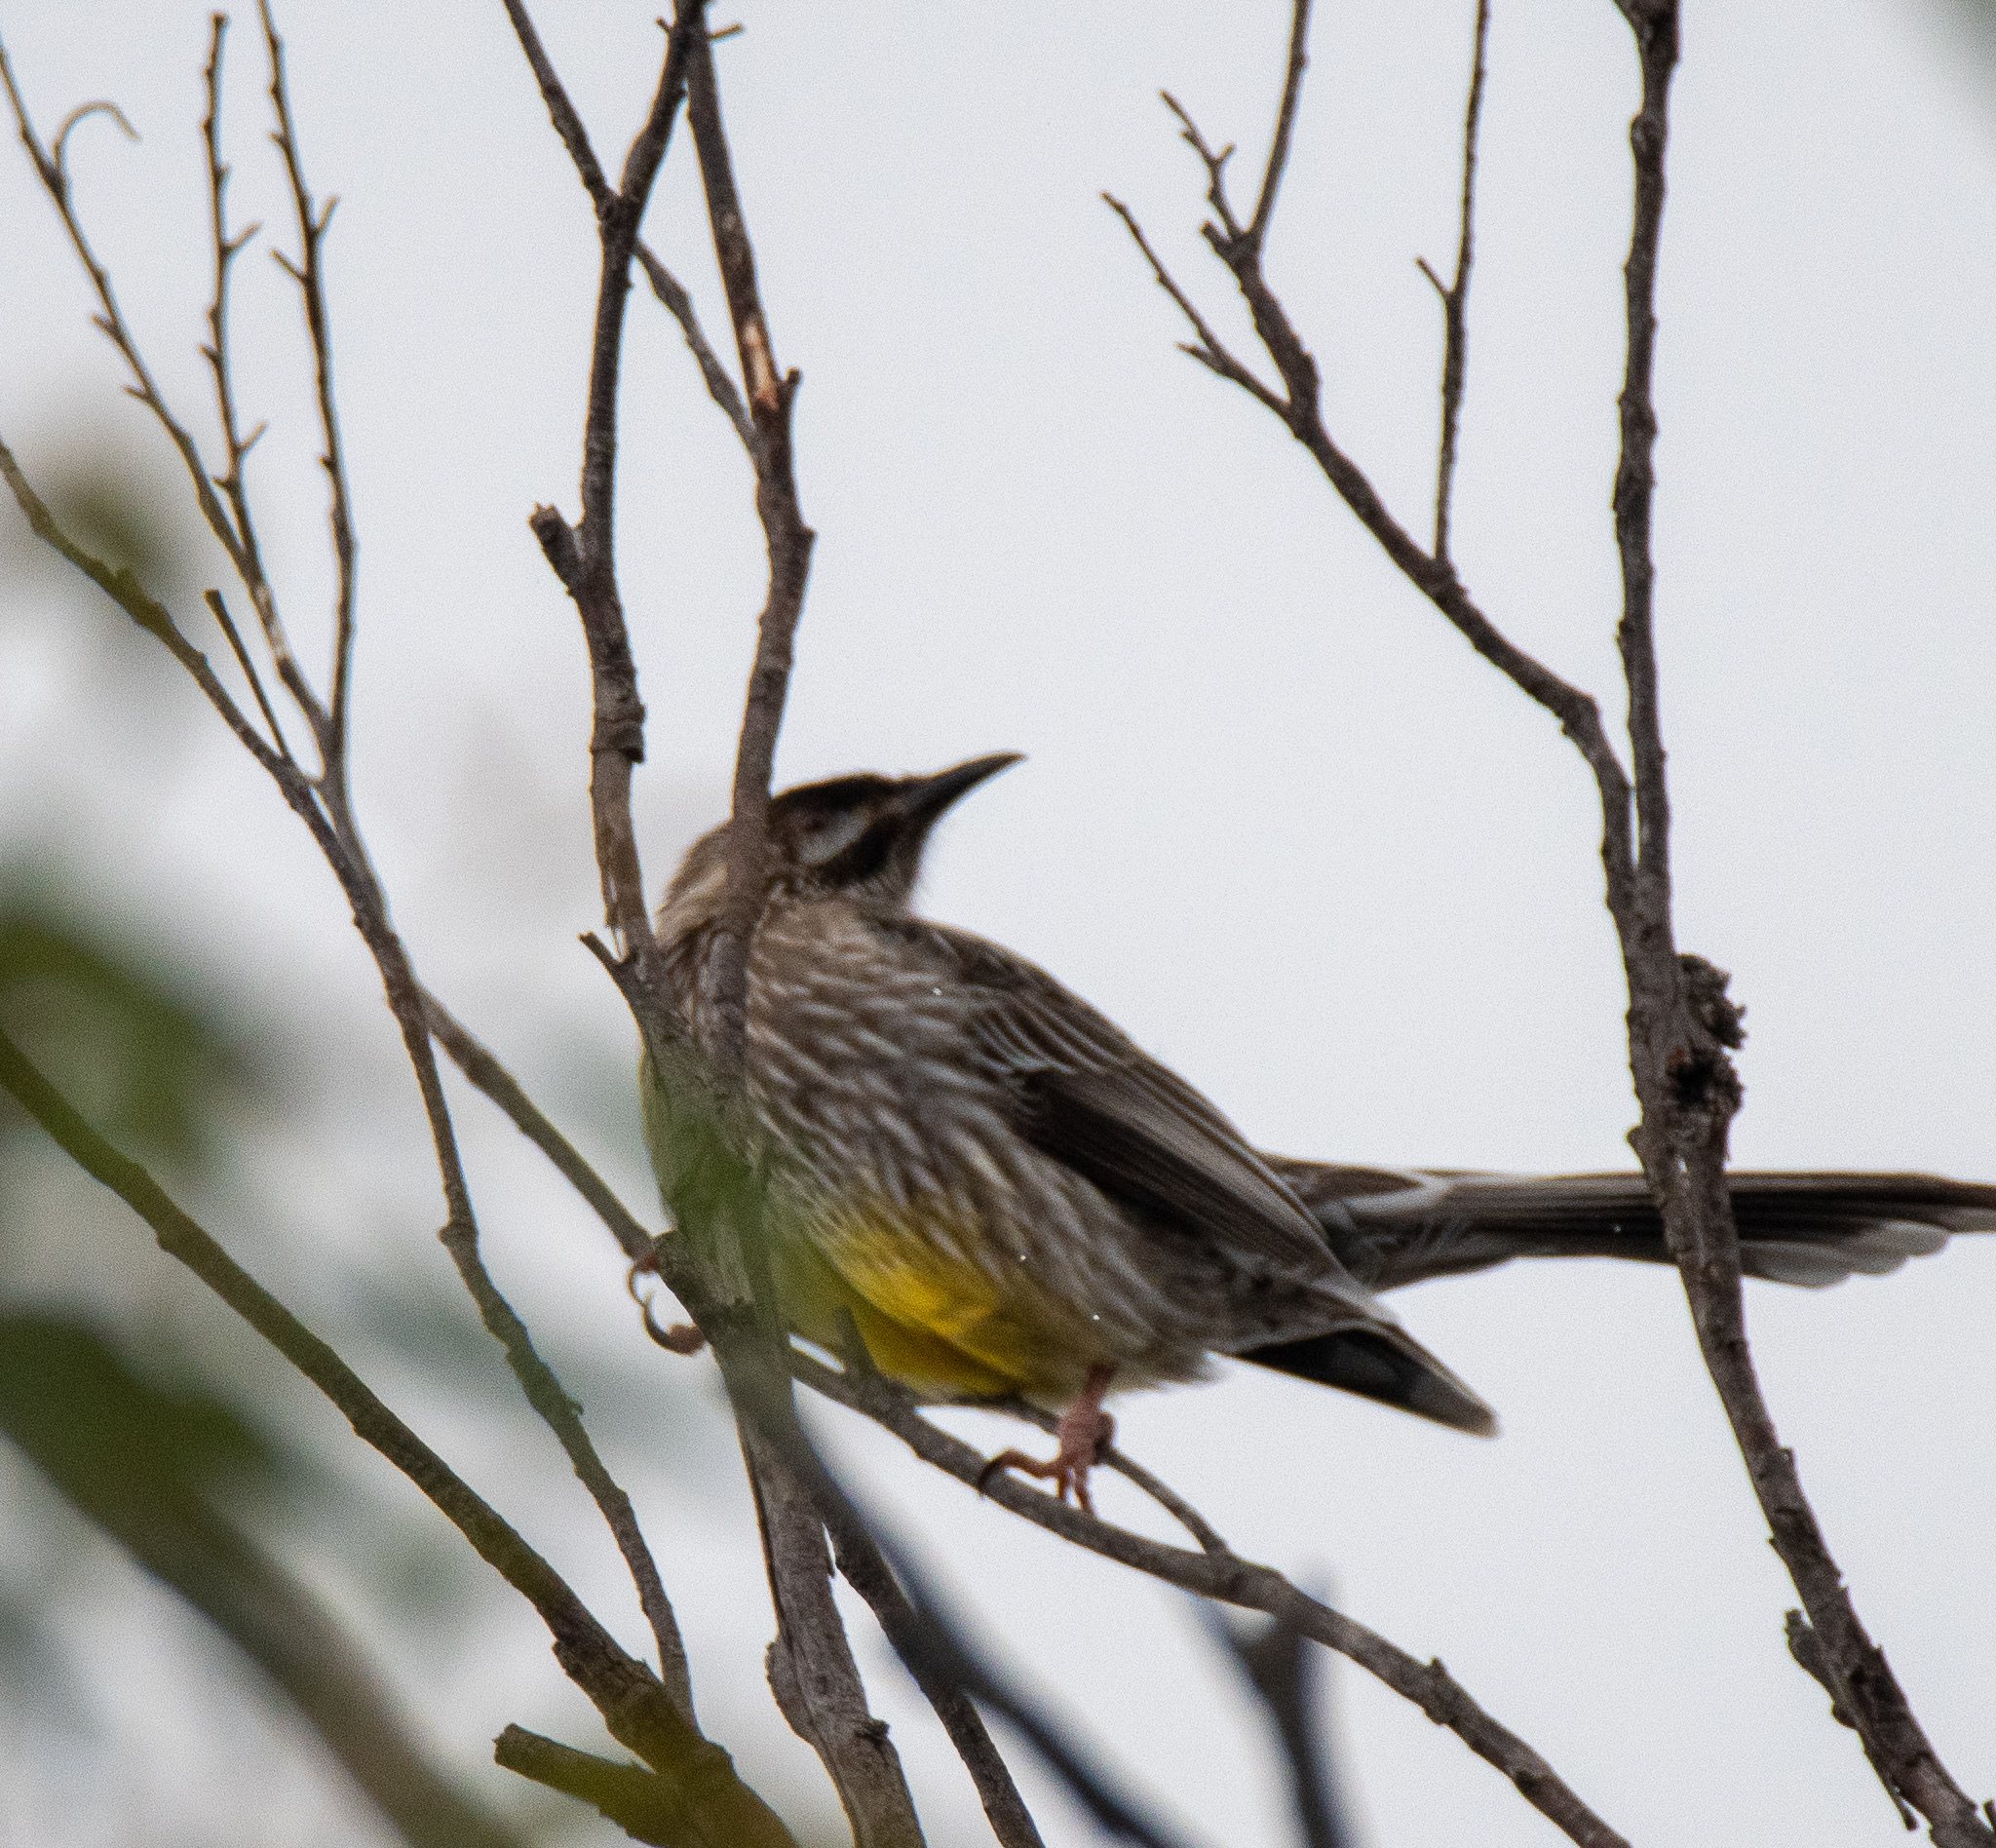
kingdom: Animalia
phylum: Chordata
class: Aves
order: Passeriformes
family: Meliphagidae
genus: Anthochaera
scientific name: Anthochaera carunculata
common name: Red wattlebird
